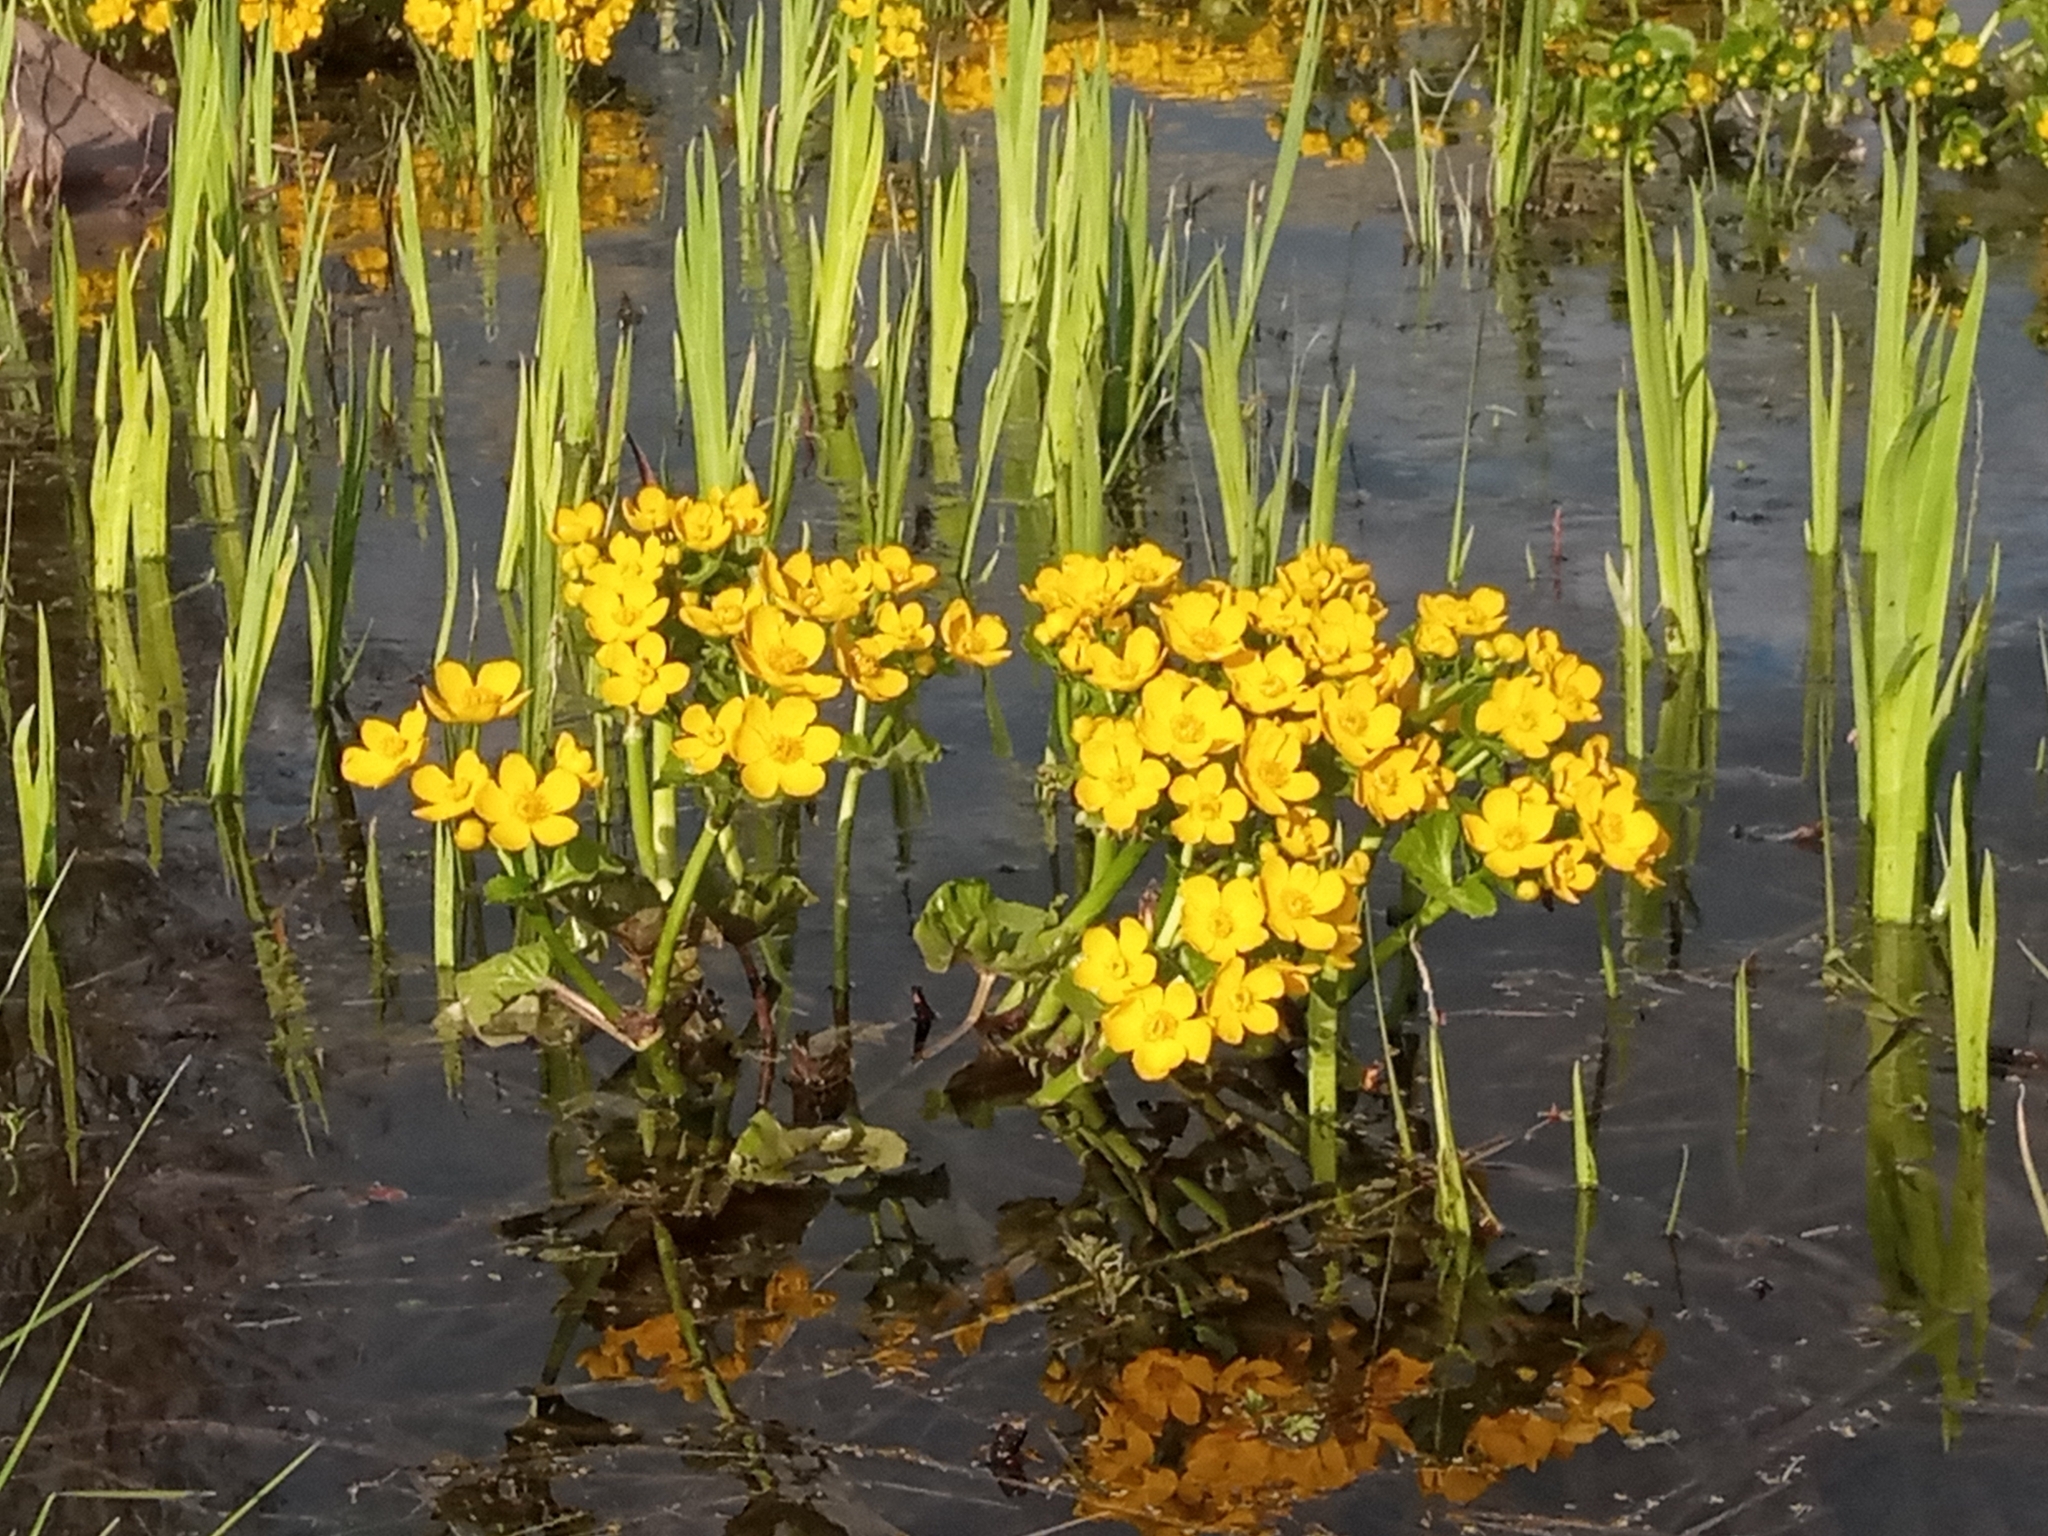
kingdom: Plantae
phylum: Tracheophyta
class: Magnoliopsida
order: Ranunculales
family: Ranunculaceae
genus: Caltha
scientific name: Caltha palustris
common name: Marsh marigold
